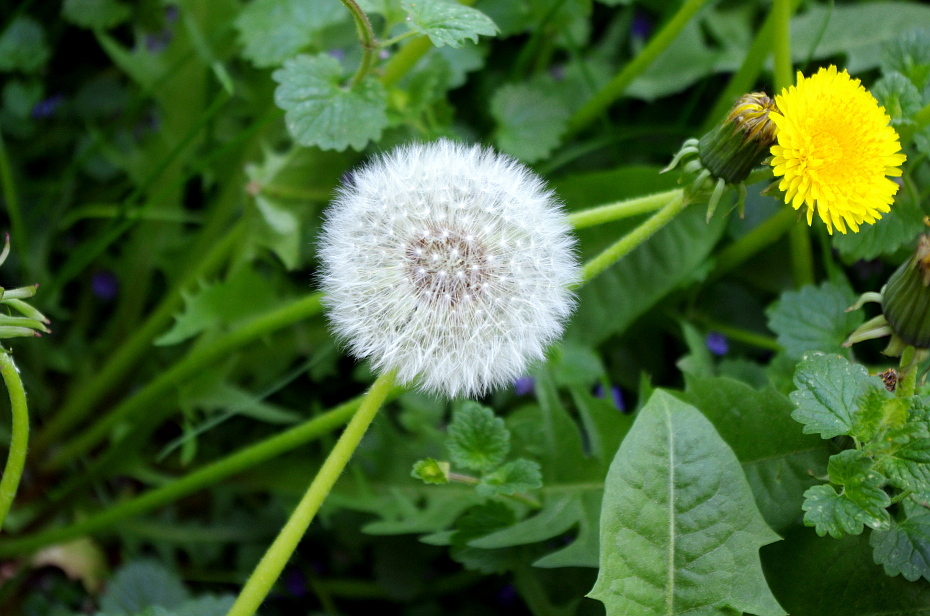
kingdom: Plantae
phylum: Tracheophyta
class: Magnoliopsida
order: Asterales
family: Asteraceae
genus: Taraxacum
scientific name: Taraxacum officinale
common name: Common dandelion
